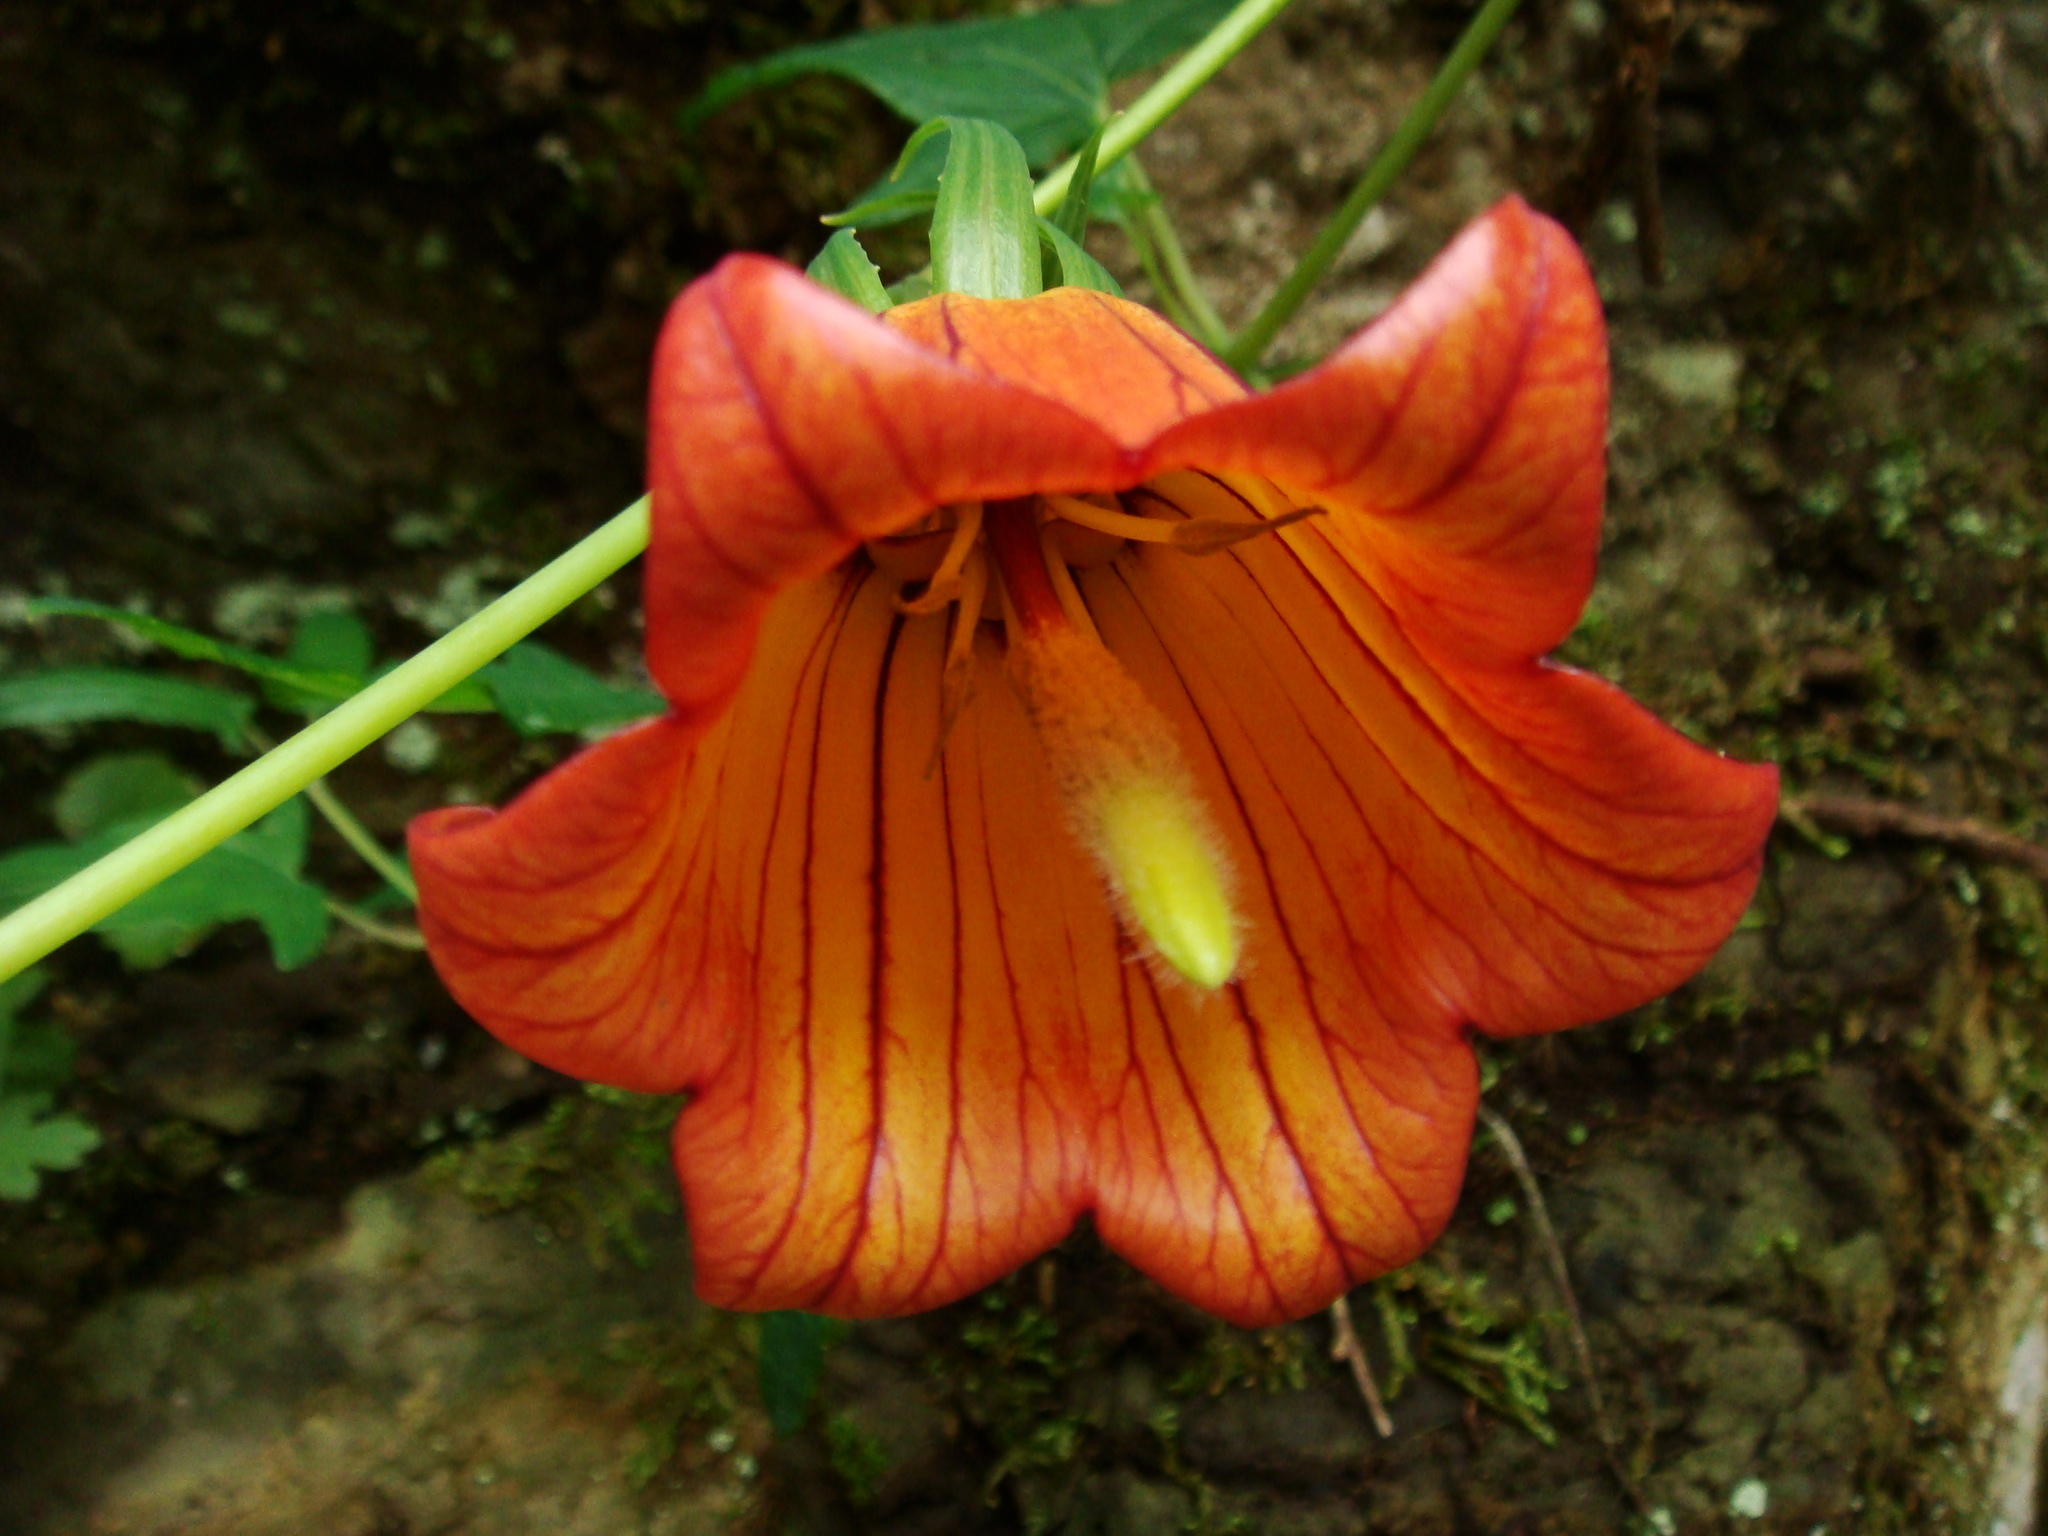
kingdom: Plantae
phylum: Tracheophyta
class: Magnoliopsida
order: Asterales
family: Campanulaceae
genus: Canarina
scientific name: Canarina canariensis
